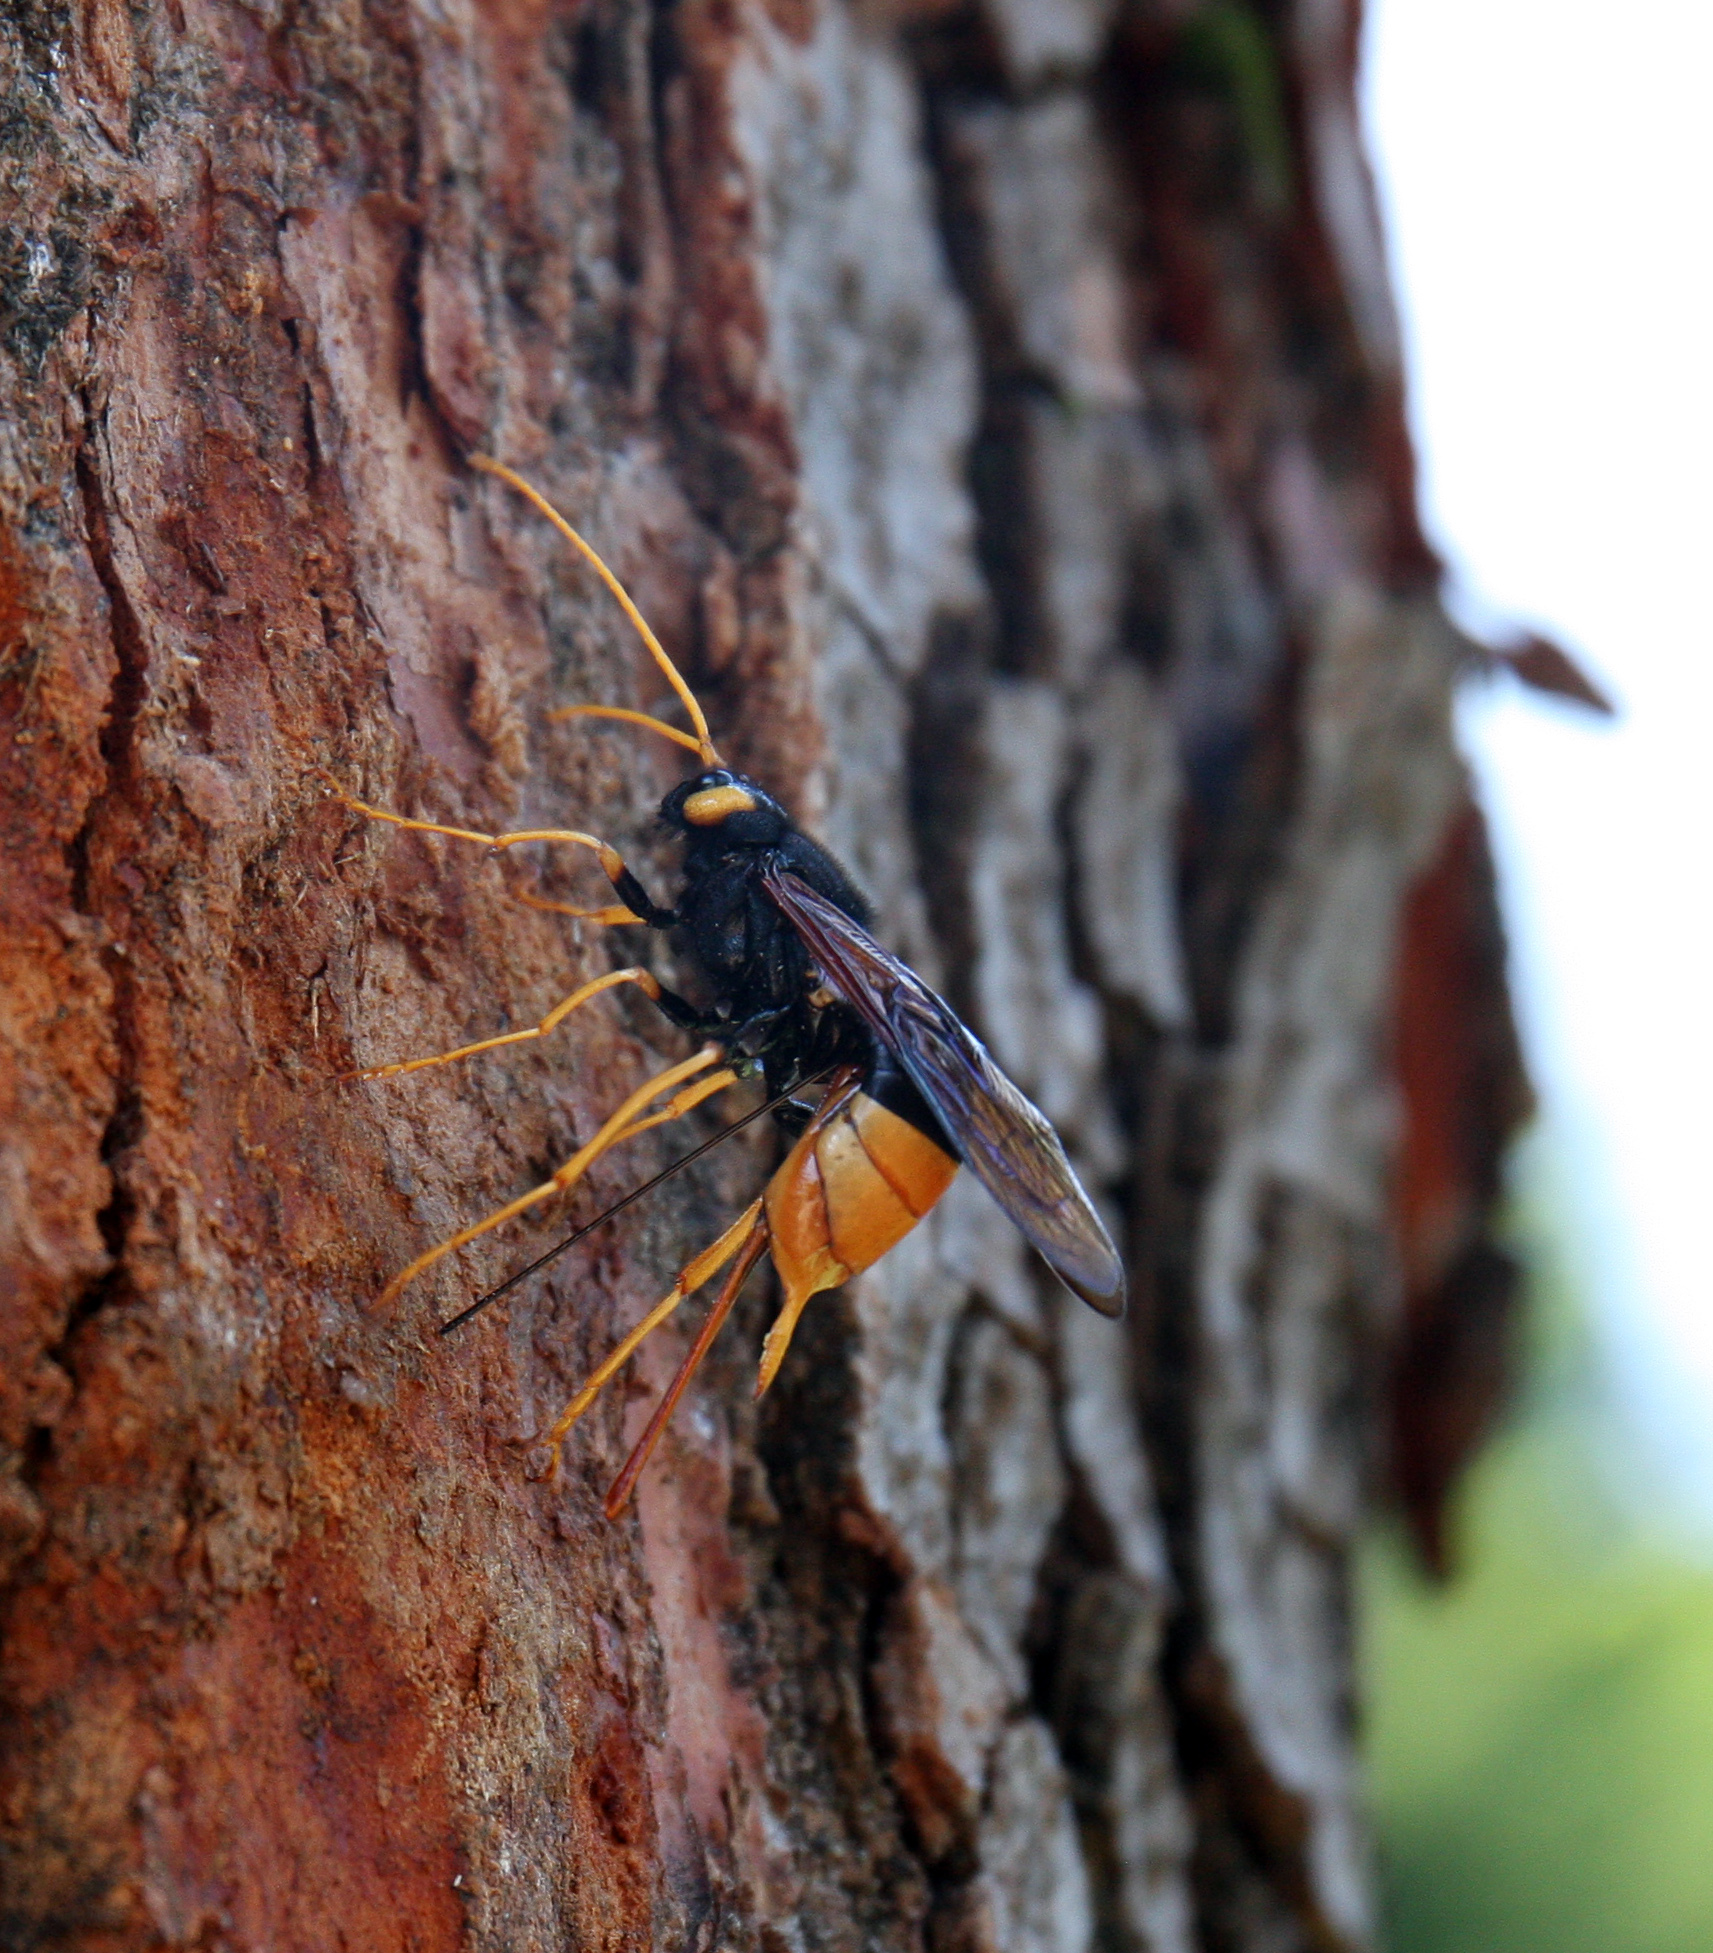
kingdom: Animalia
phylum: Arthropoda
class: Insecta
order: Hymenoptera
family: Siricidae
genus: Urocerus
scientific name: Urocerus gigas
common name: Giant woodwasp
